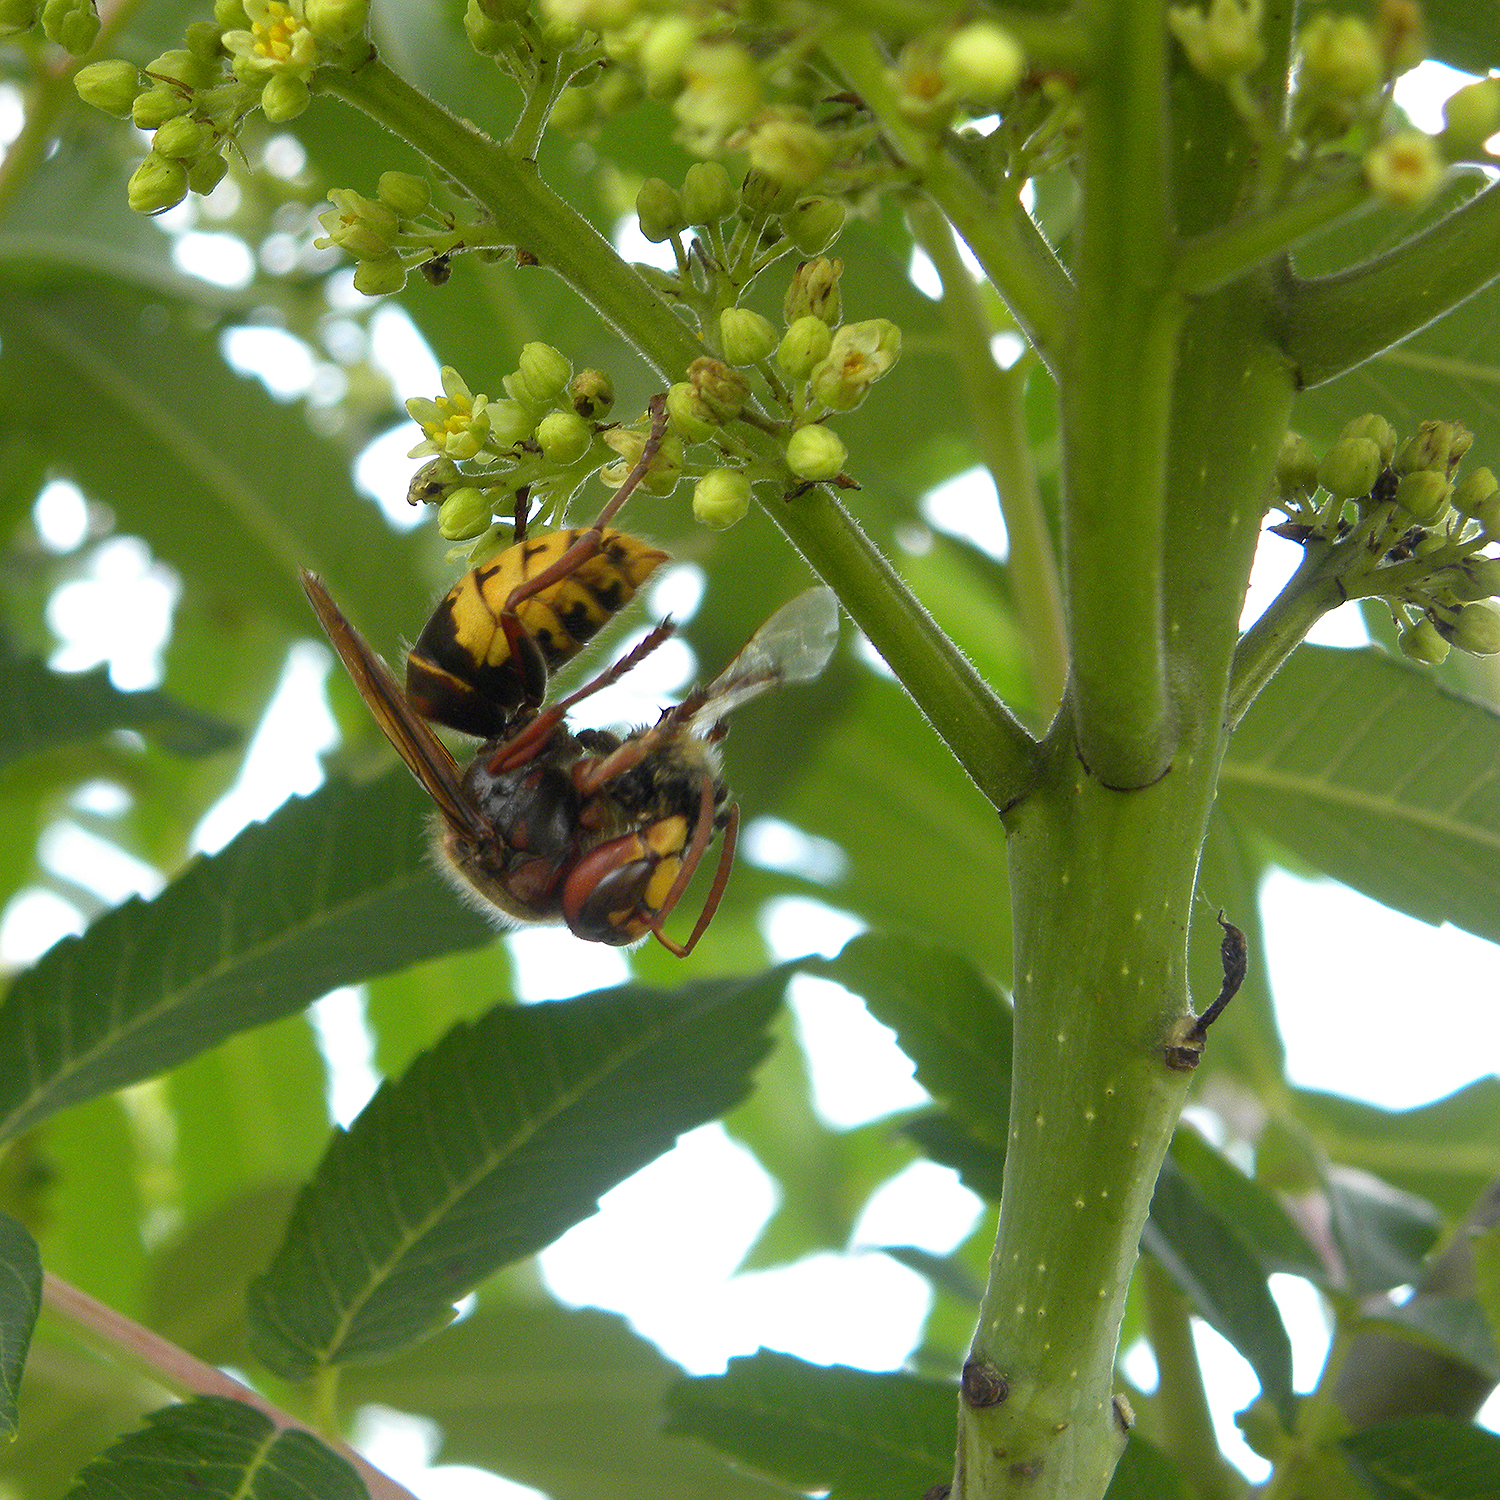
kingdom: Animalia
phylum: Arthropoda
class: Insecta
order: Hymenoptera
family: Vespidae
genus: Vespa
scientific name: Vespa crabro
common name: Hornet
